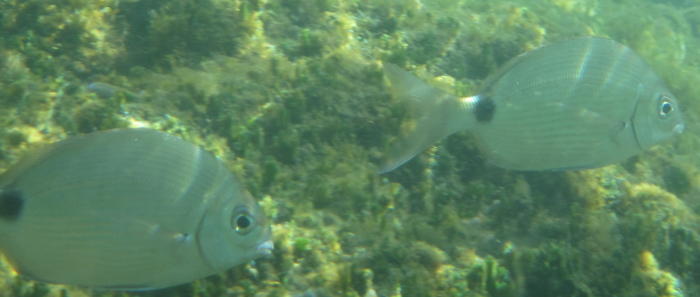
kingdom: Animalia
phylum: Chordata
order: Perciformes
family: Sparidae
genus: Diplodus
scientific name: Diplodus capensis
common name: Blacktail
